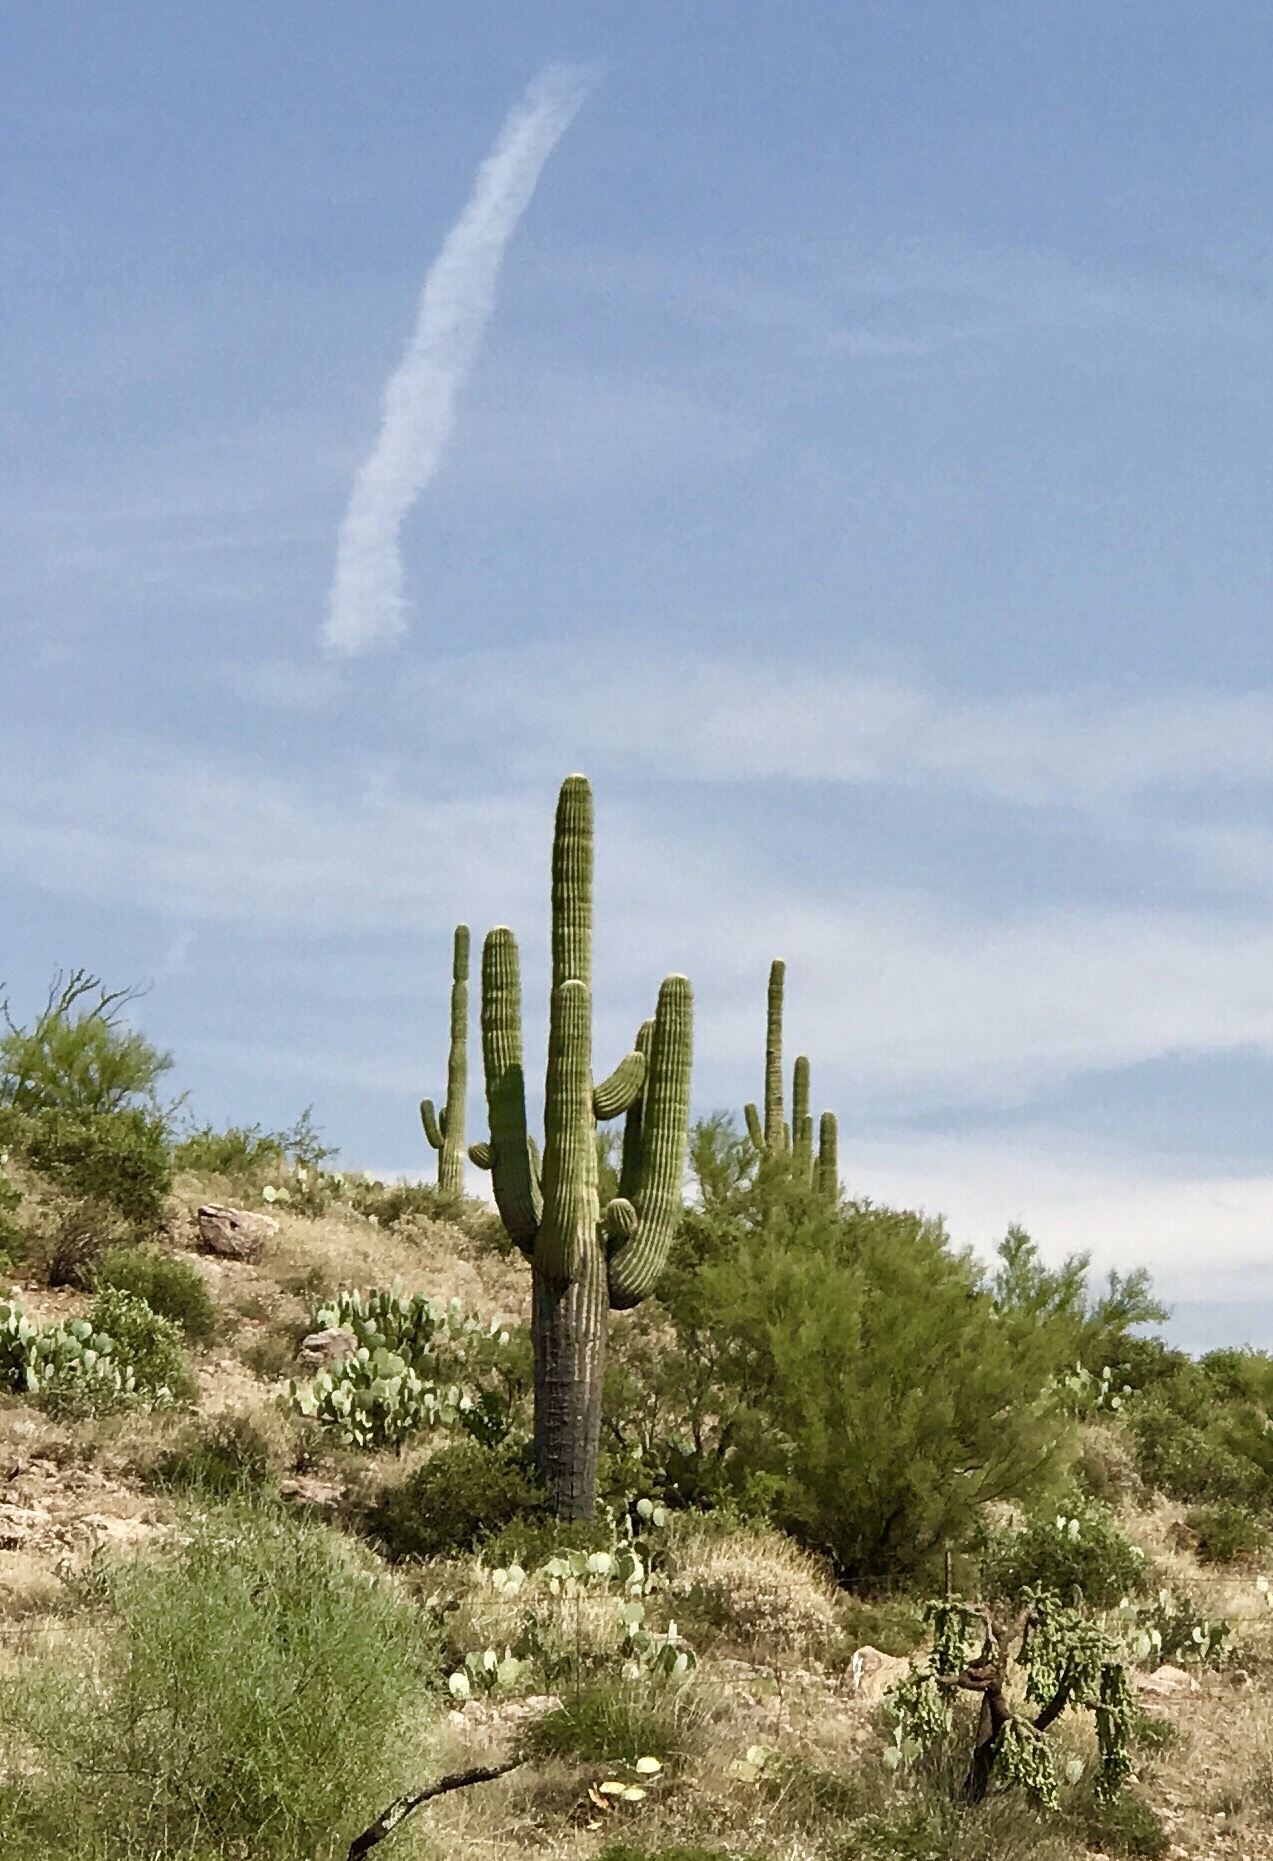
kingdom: Plantae
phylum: Tracheophyta
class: Magnoliopsida
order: Caryophyllales
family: Cactaceae
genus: Carnegiea
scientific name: Carnegiea gigantea
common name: Saguaro
